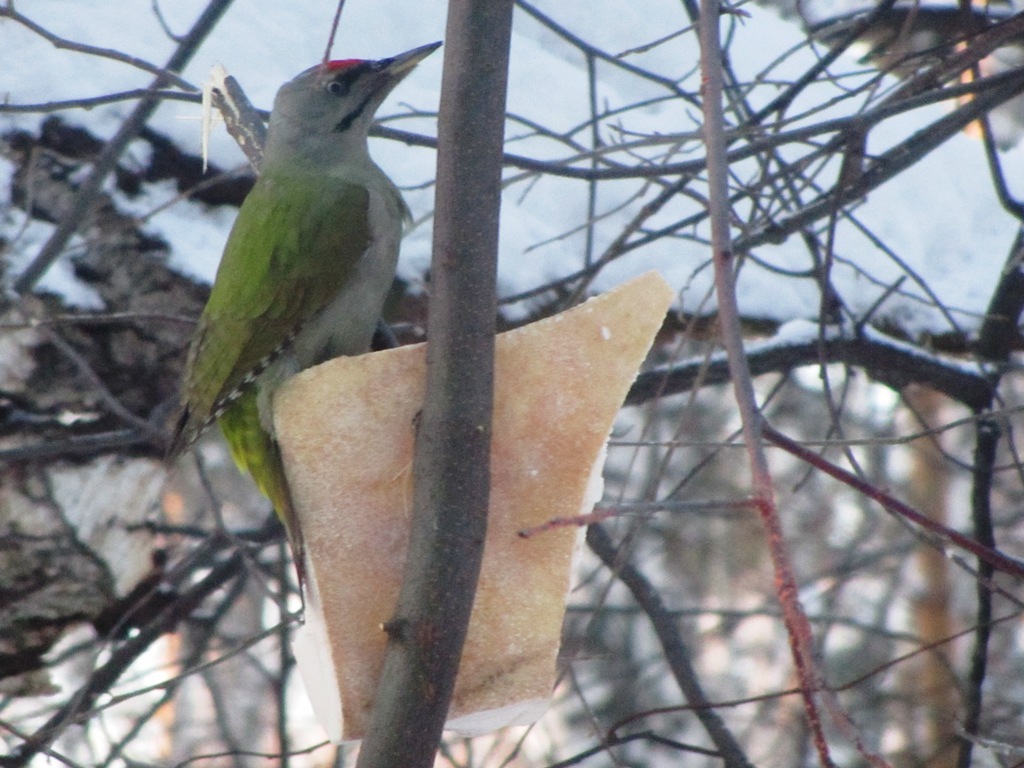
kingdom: Animalia
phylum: Chordata
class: Aves
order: Piciformes
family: Picidae
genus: Picus
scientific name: Picus canus
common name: Grey-headed woodpecker
